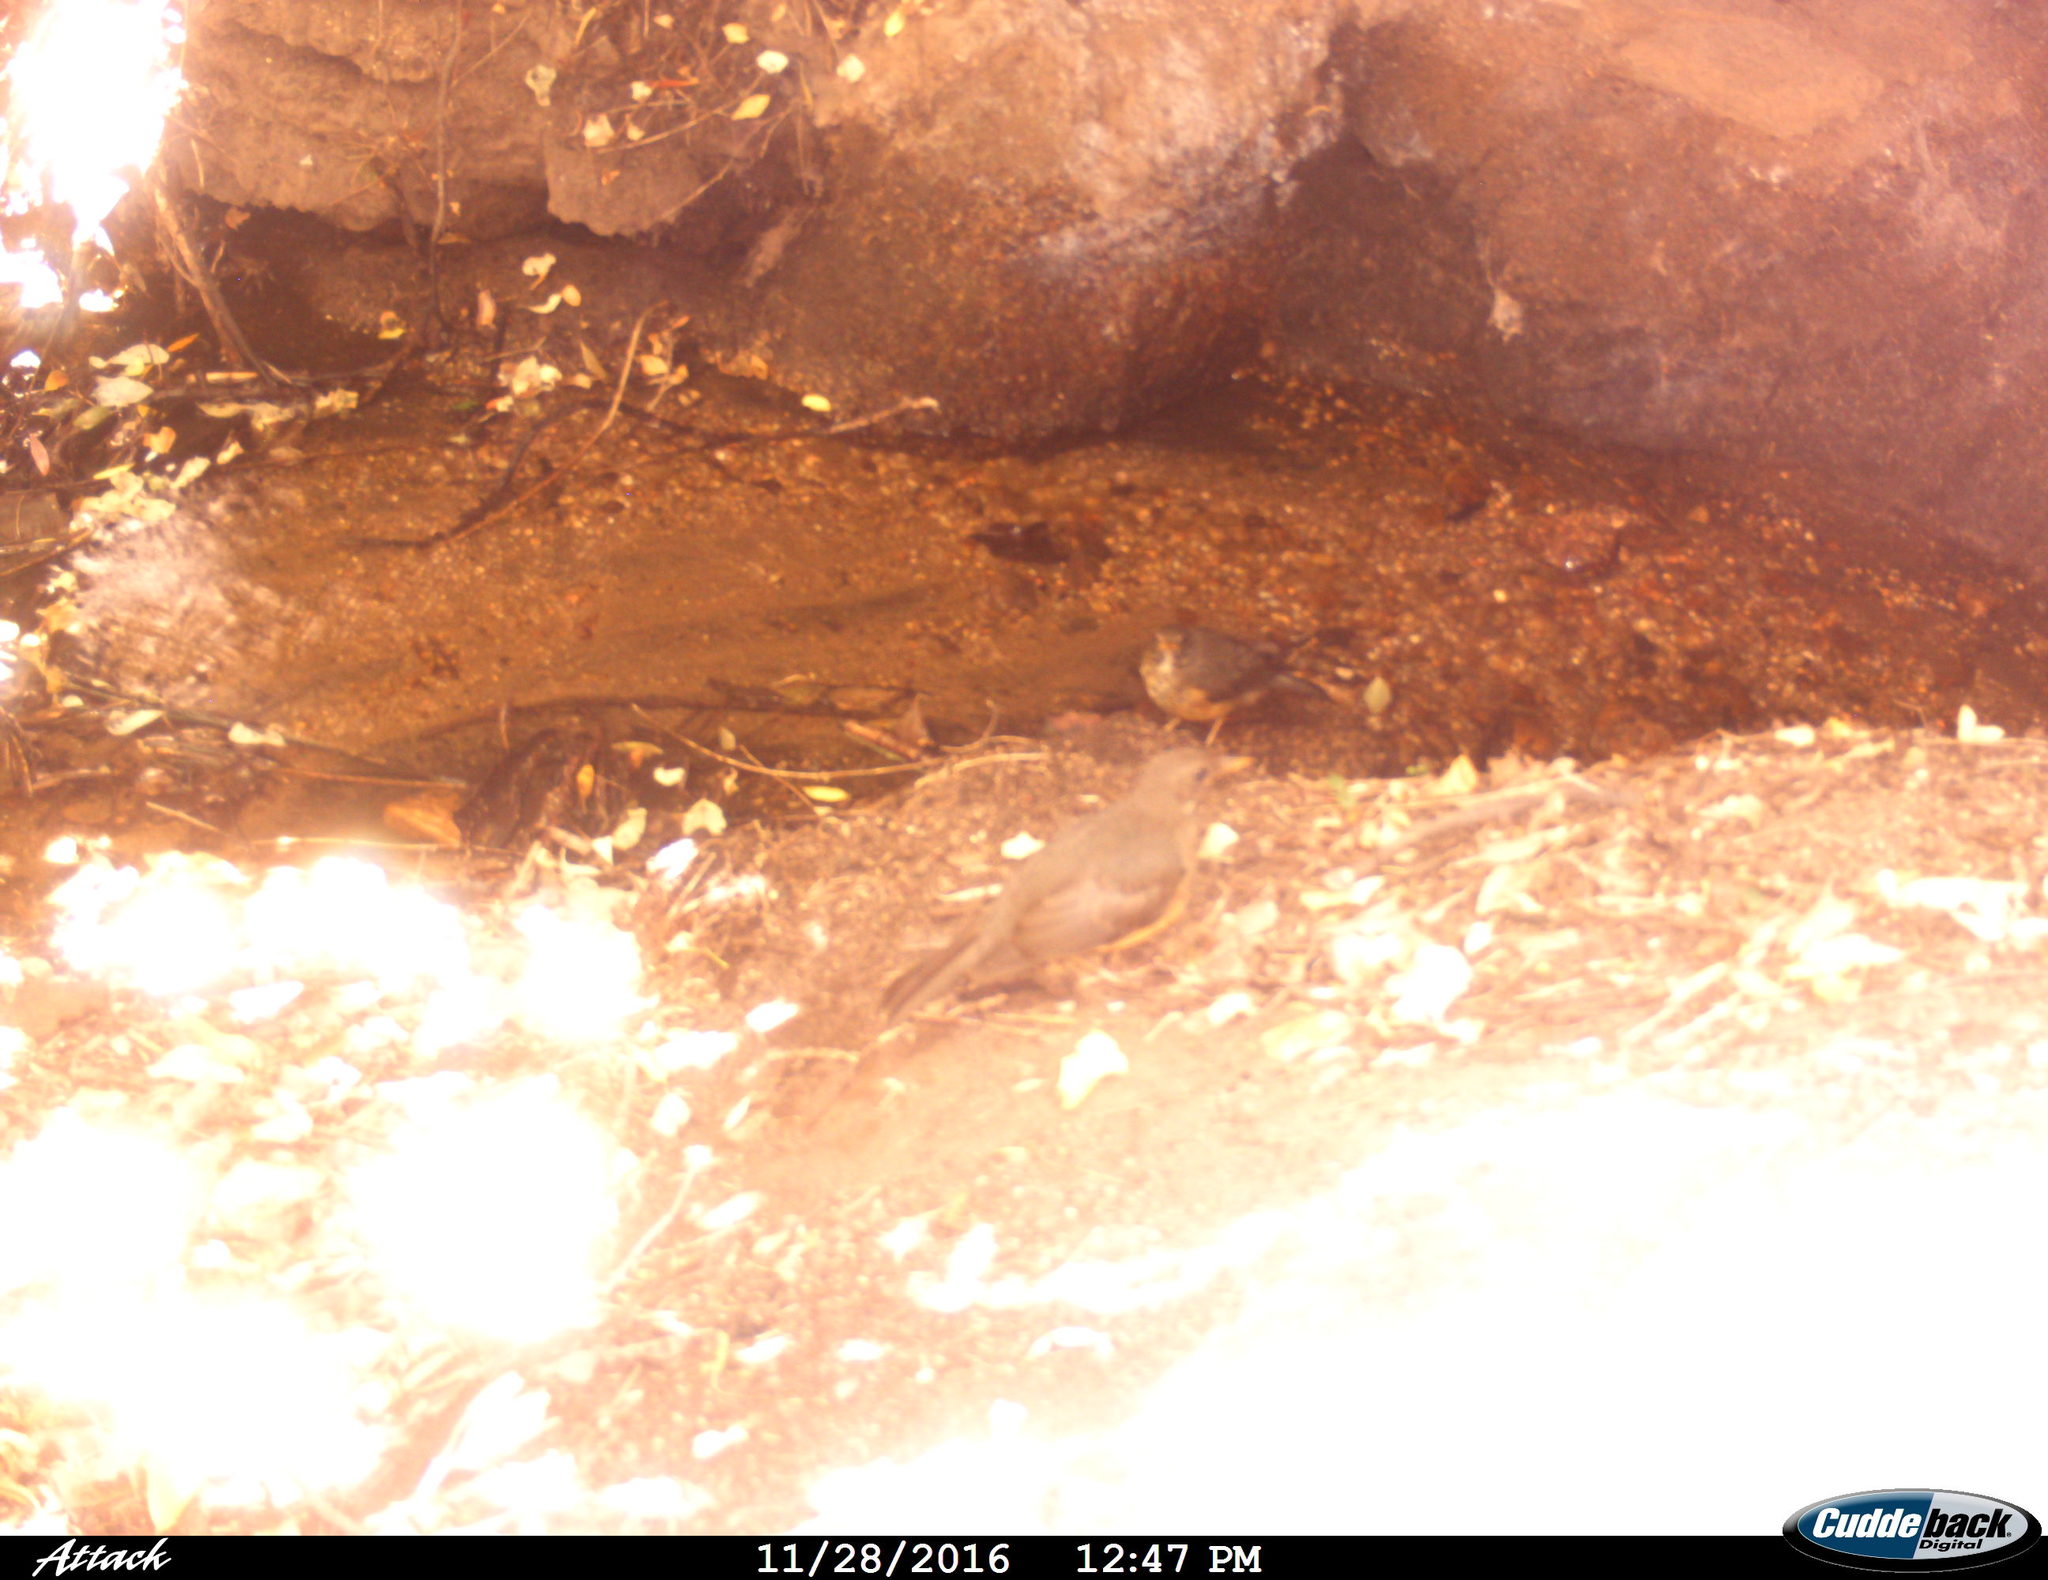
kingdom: Animalia
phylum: Chordata
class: Aves
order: Passeriformes
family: Turdidae
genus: Turdus
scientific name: Turdus olivaceus
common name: Olive thrush
